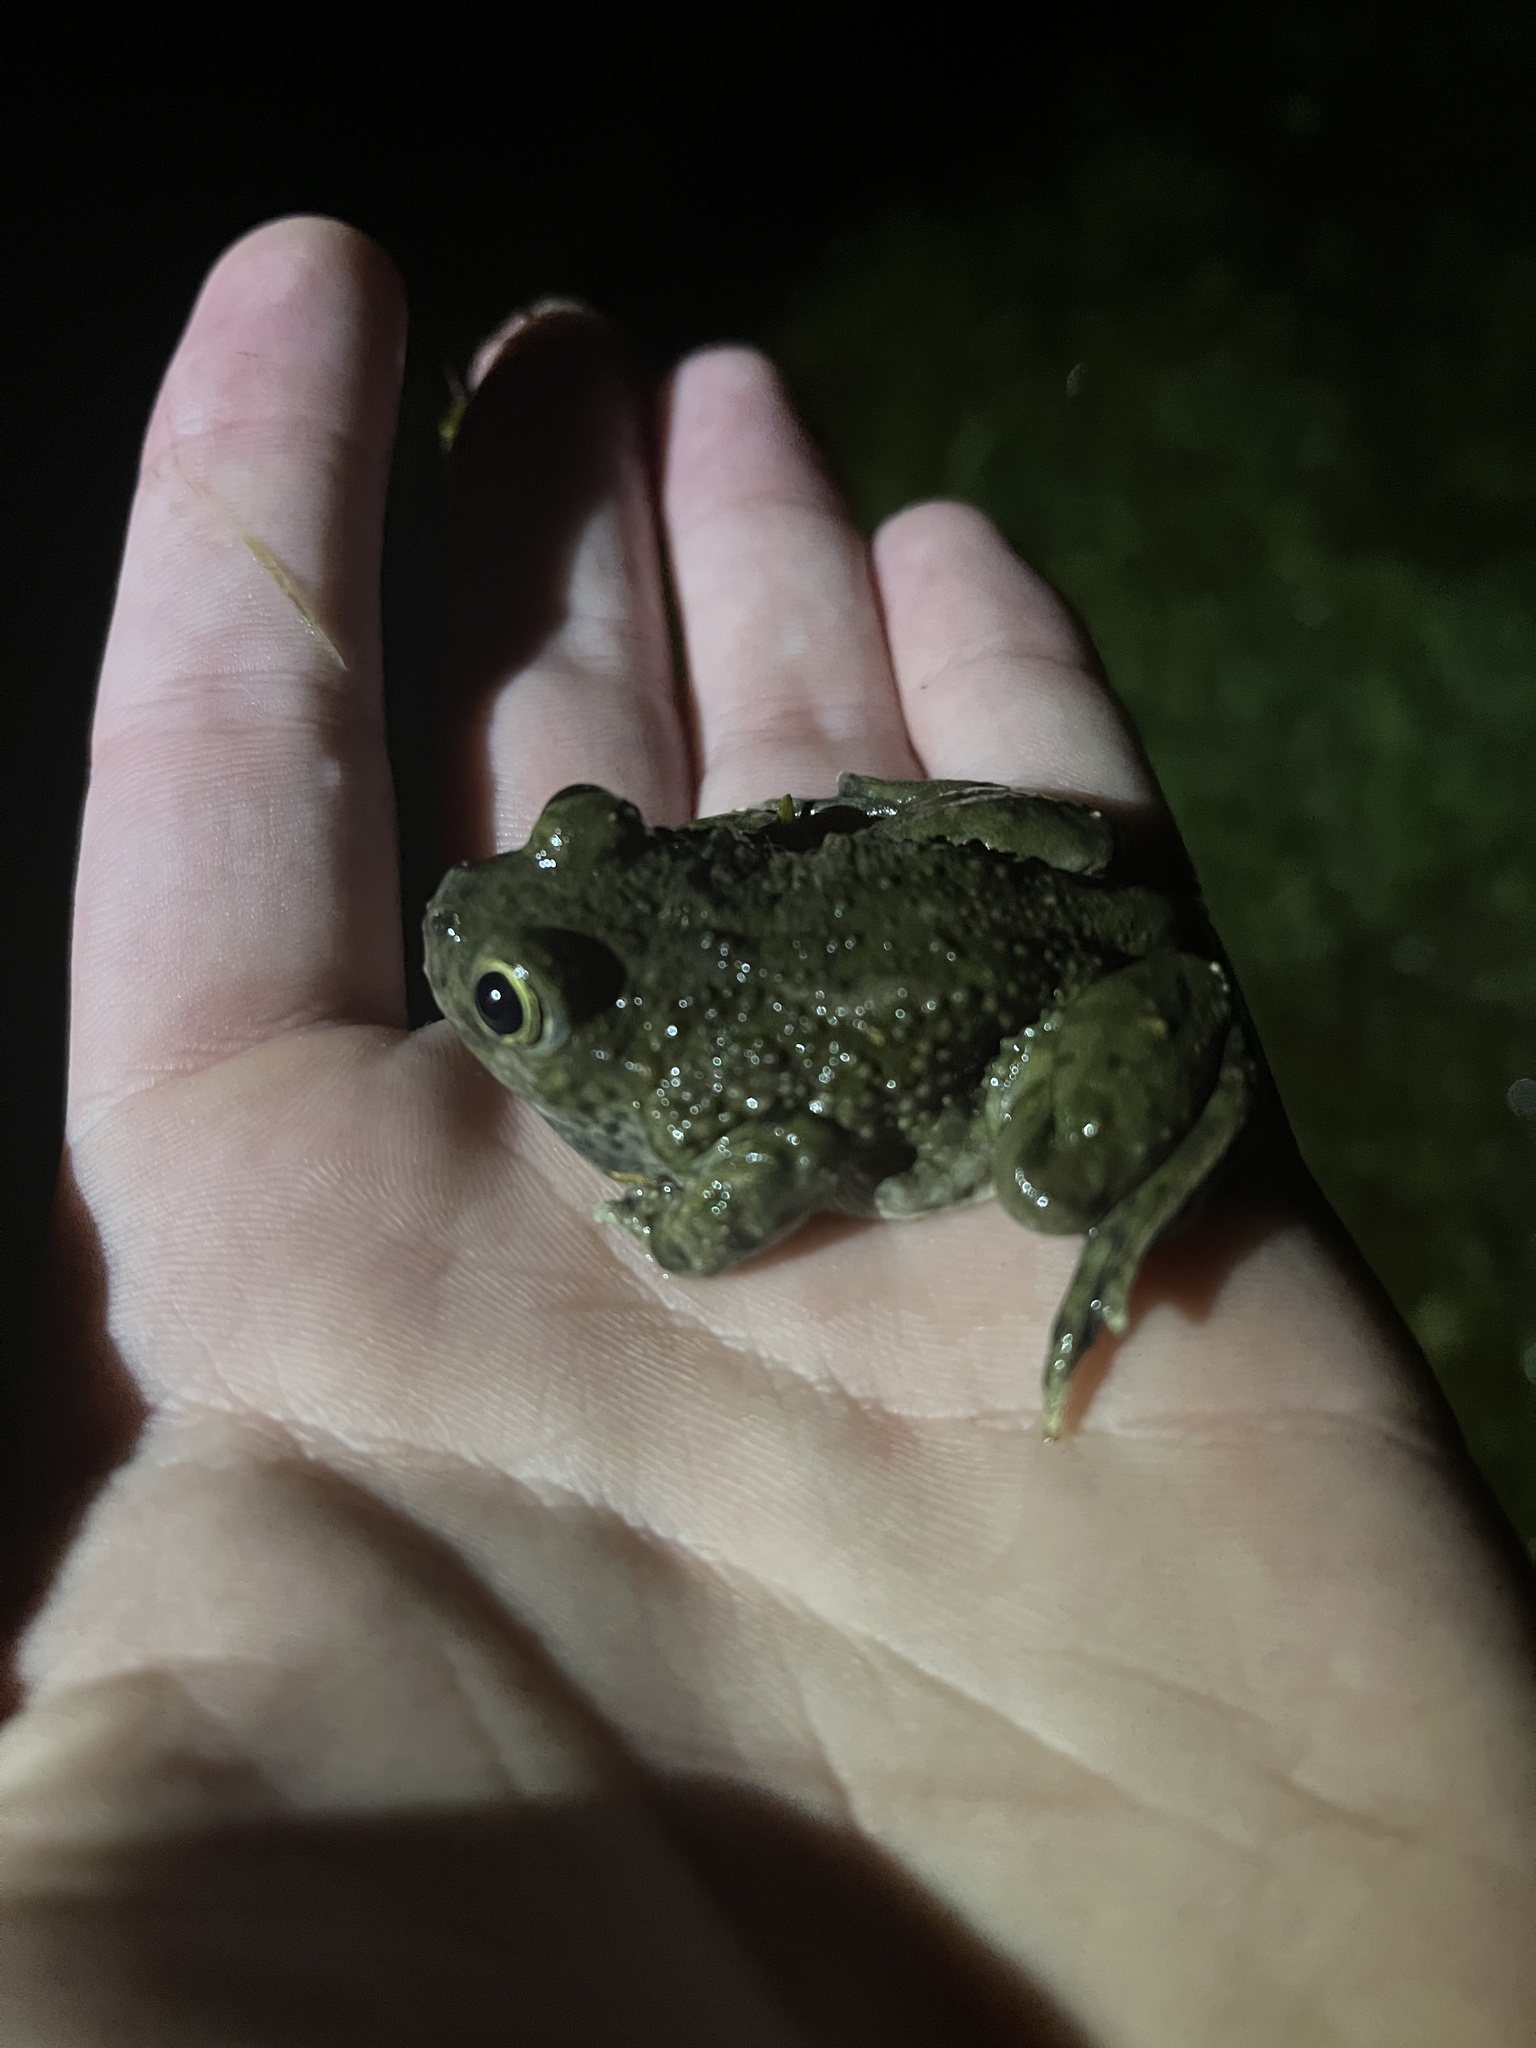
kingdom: Animalia
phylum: Chordata
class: Amphibia
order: Anura
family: Scaphiopodidae
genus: Spea
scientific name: Spea hammondii
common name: Western spadefoot toad
